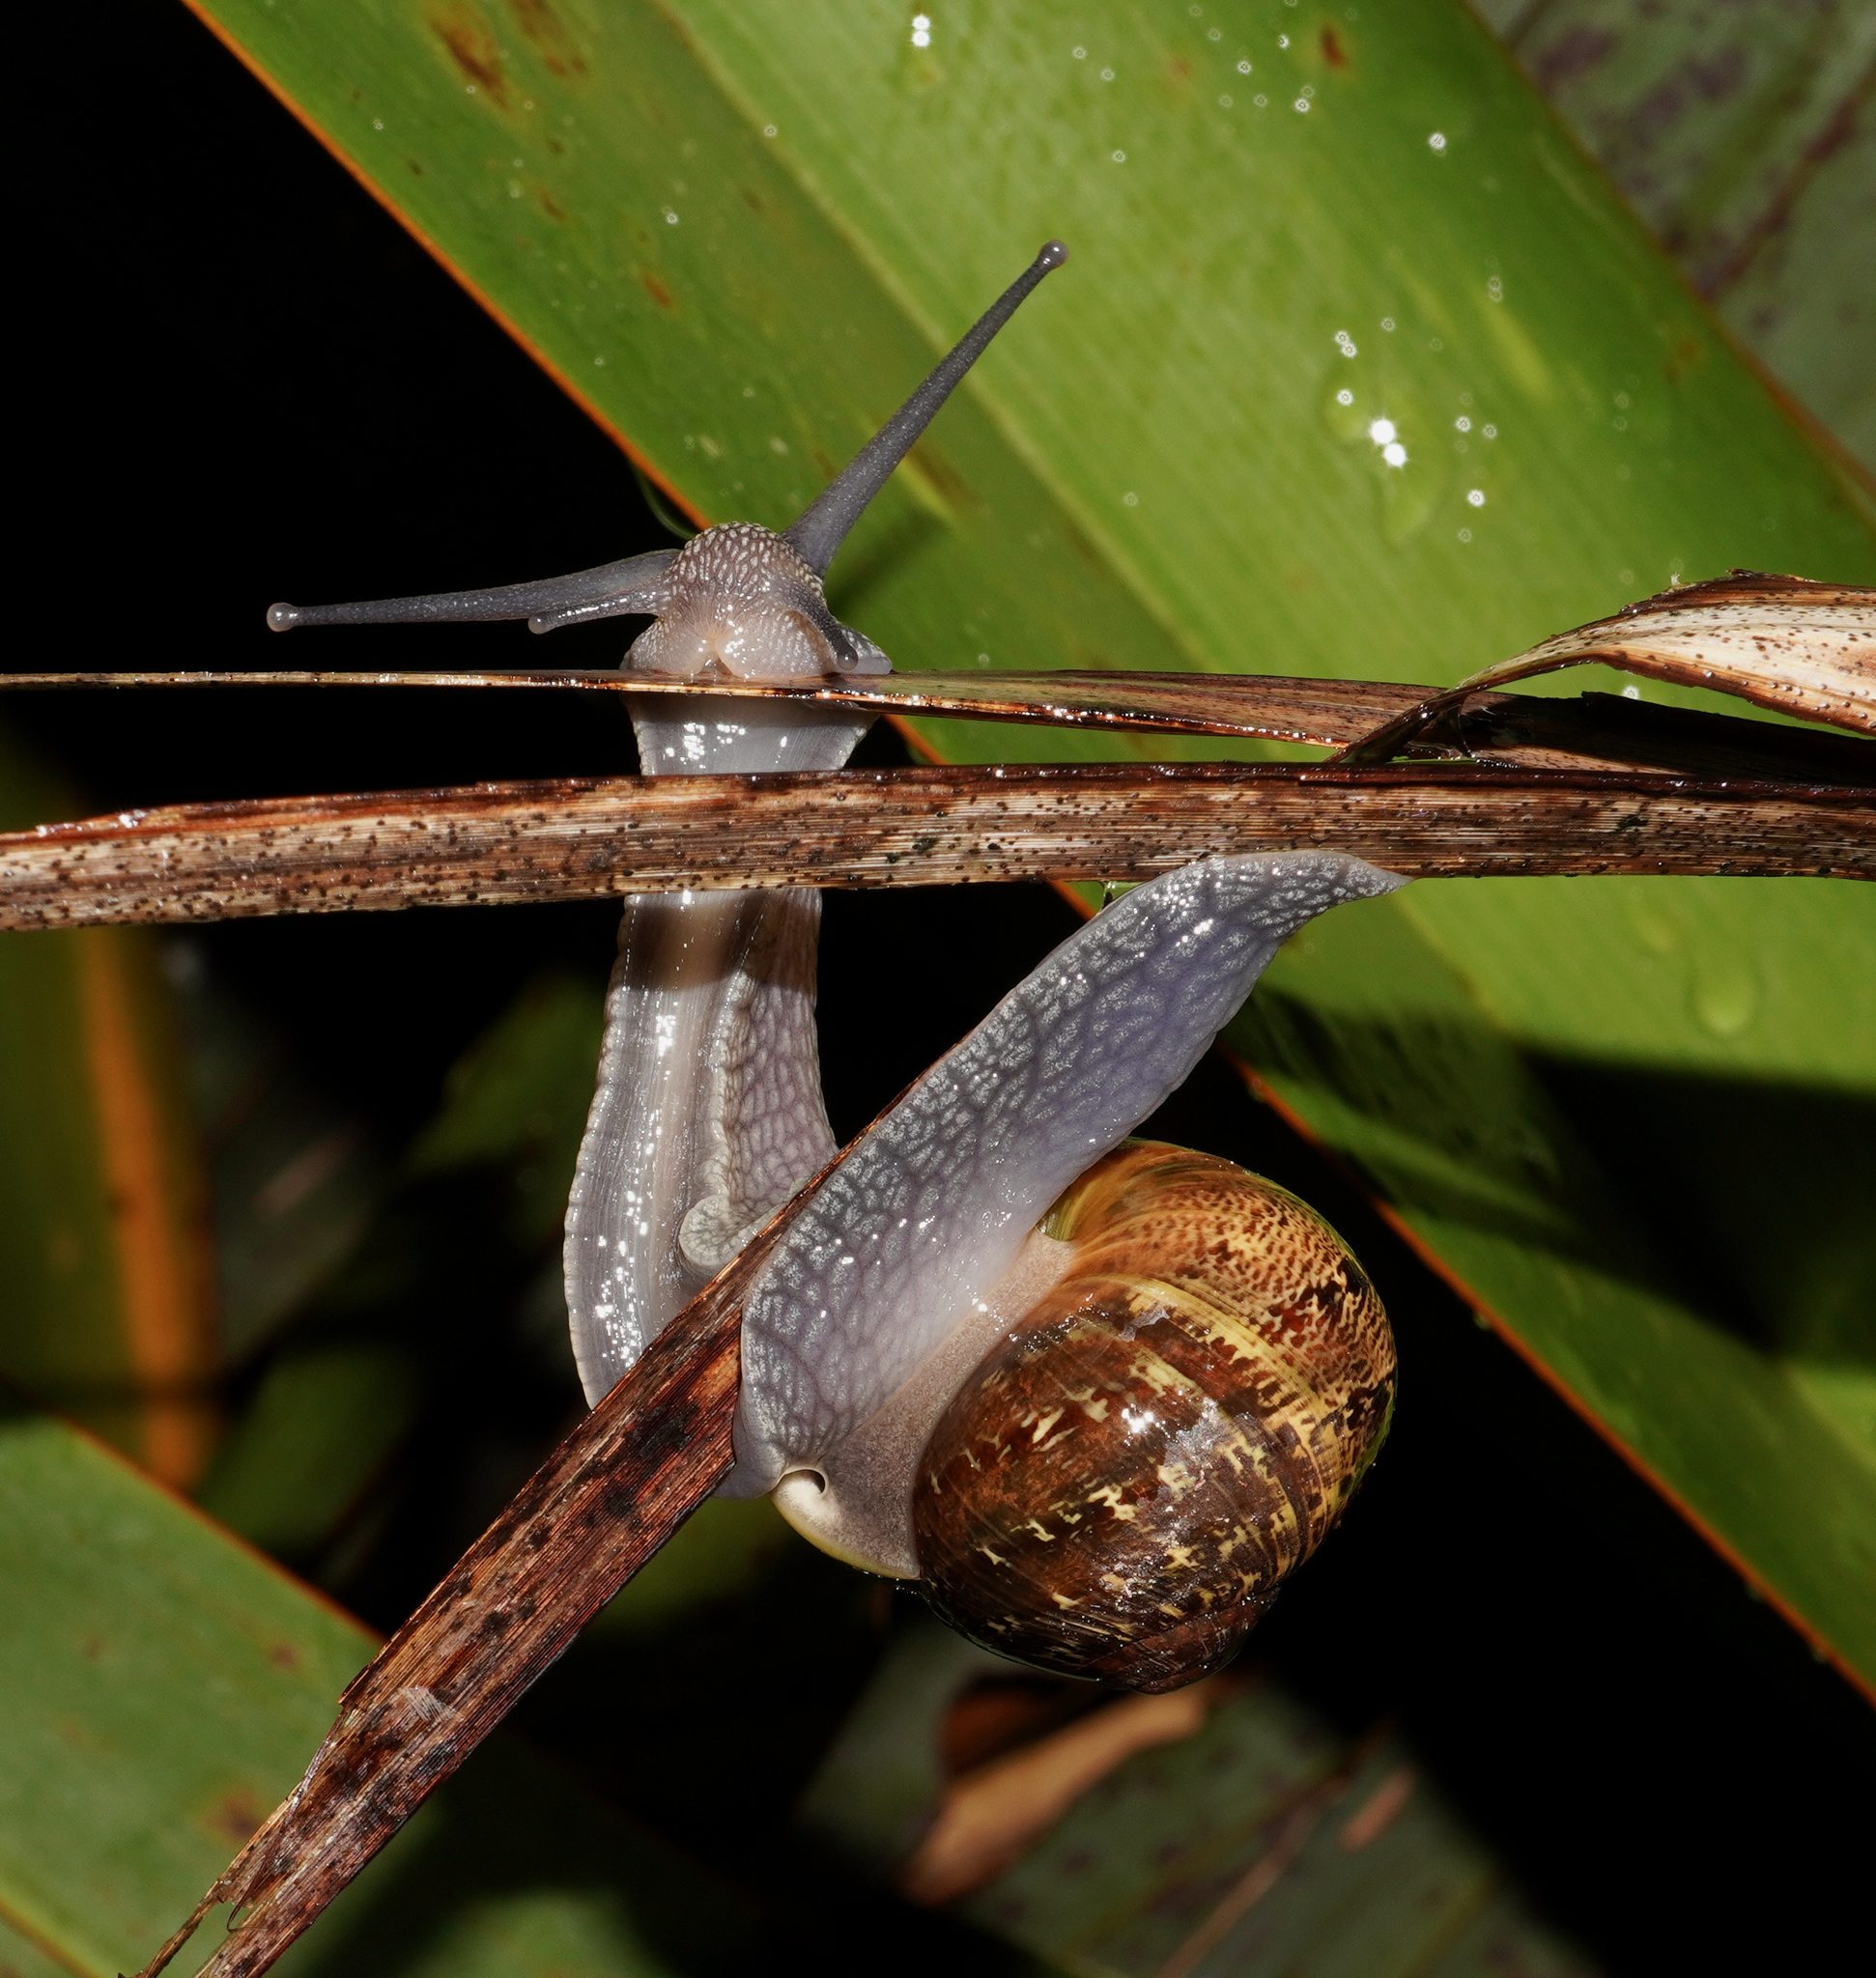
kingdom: Animalia
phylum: Mollusca
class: Gastropoda
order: Stylommatophora
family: Helicidae
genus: Cornu
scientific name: Cornu aspersum
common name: Brown garden snail
